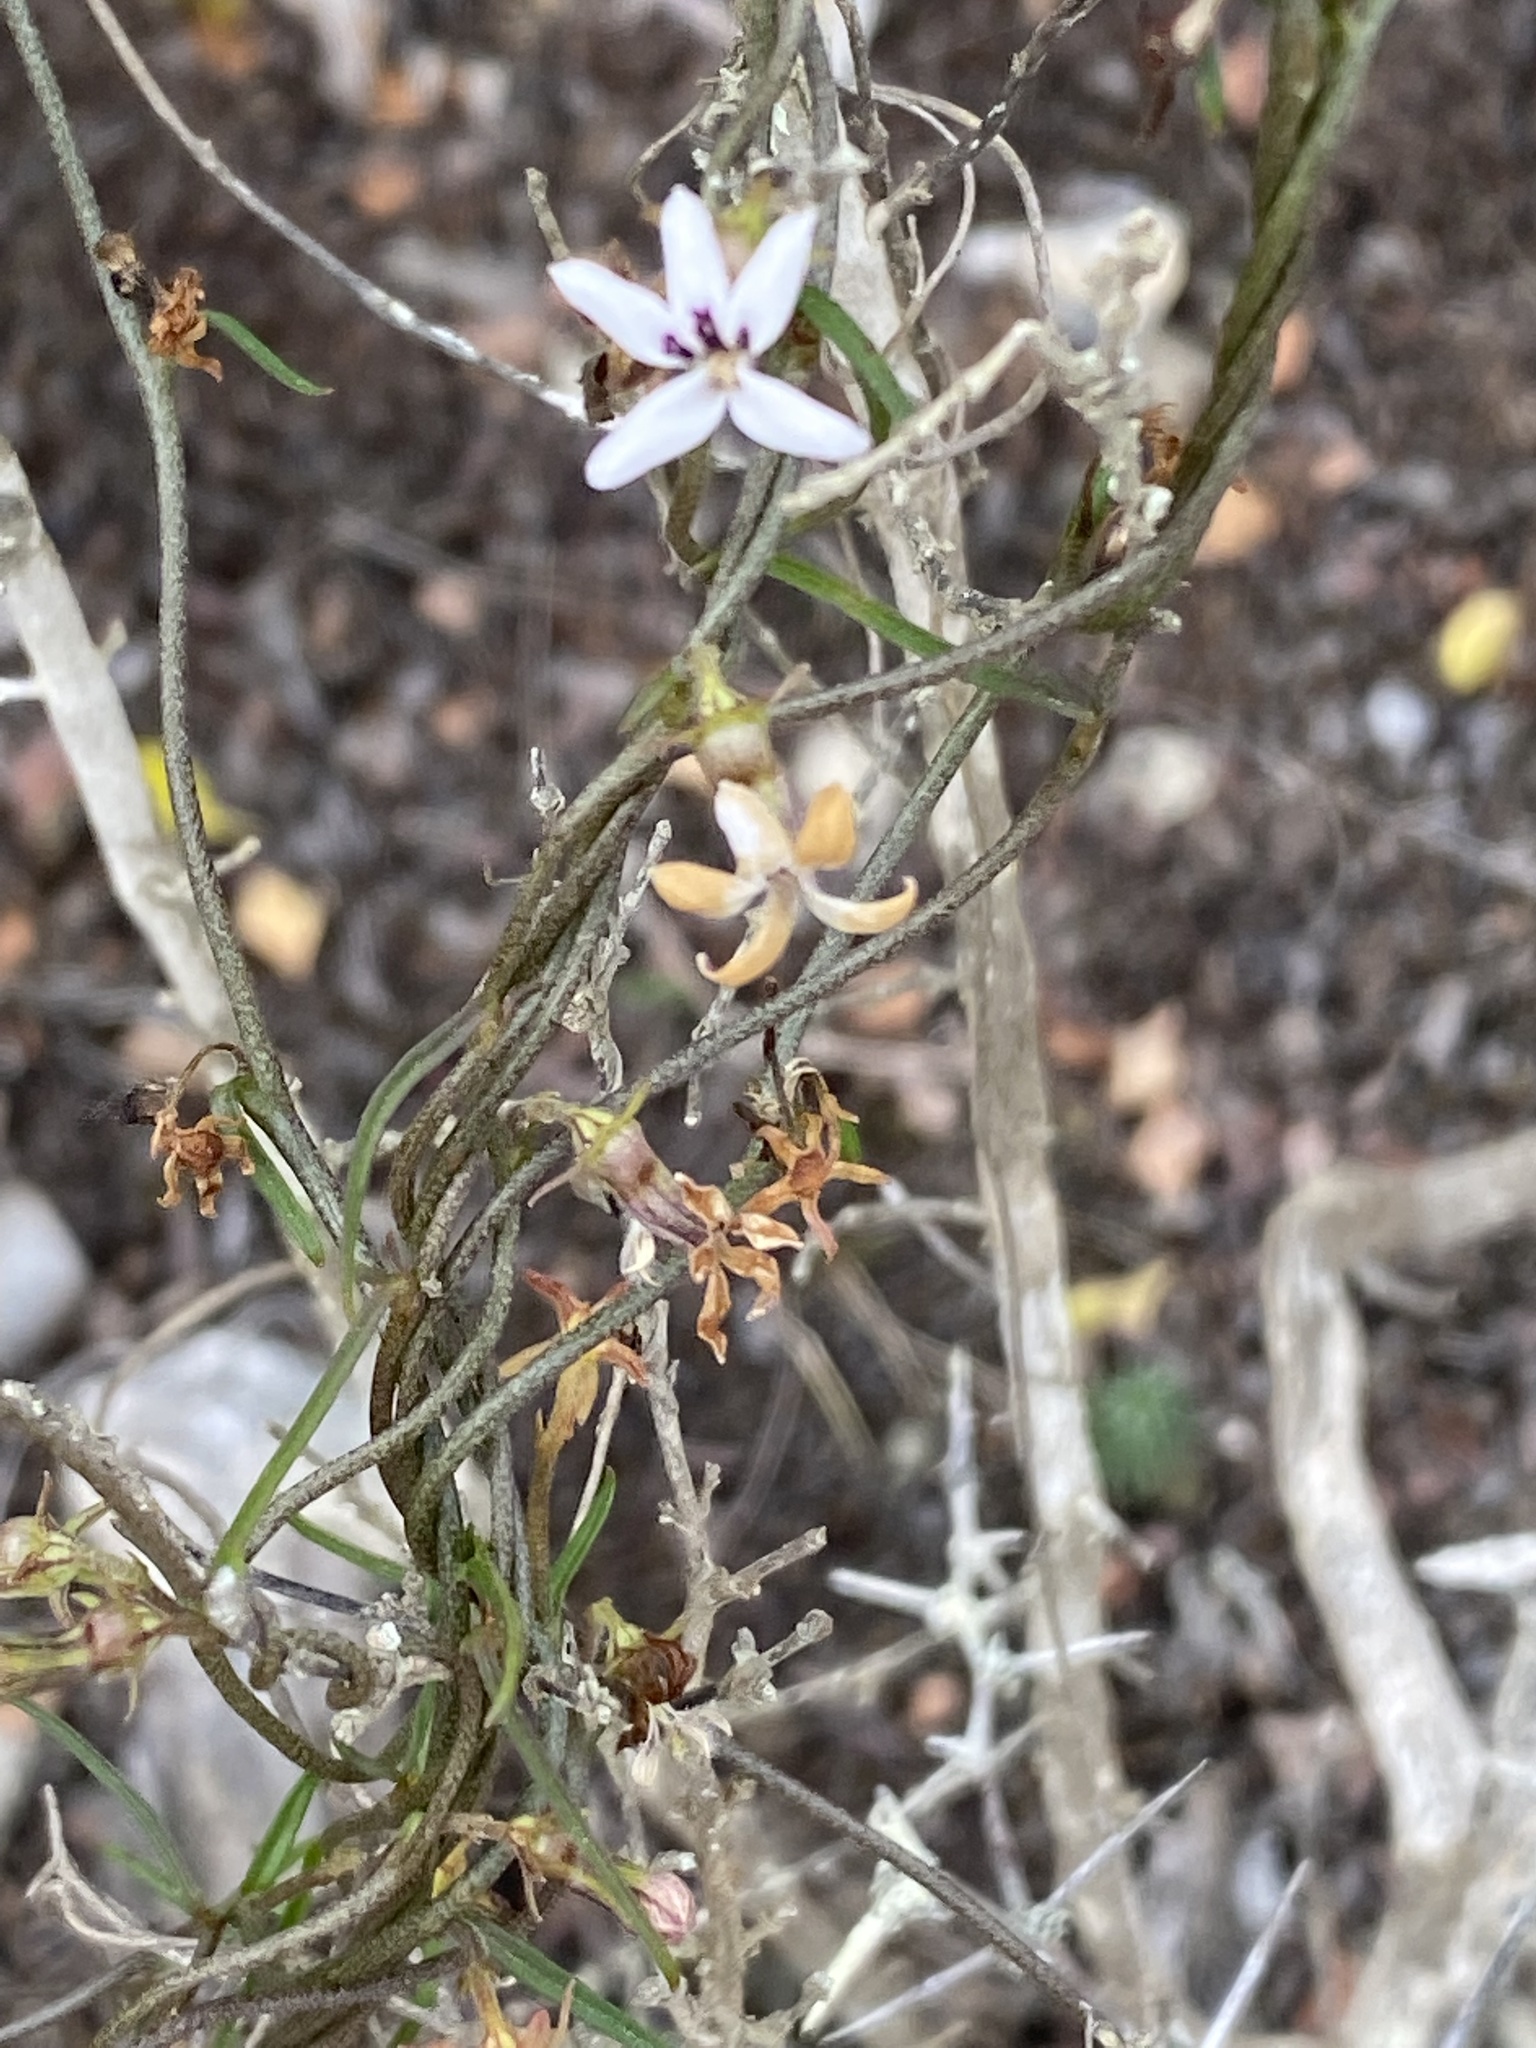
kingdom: Plantae
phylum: Tracheophyta
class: Magnoliopsida
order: Asterales
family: Campanulaceae
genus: Cyphia
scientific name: Cyphia digitata
